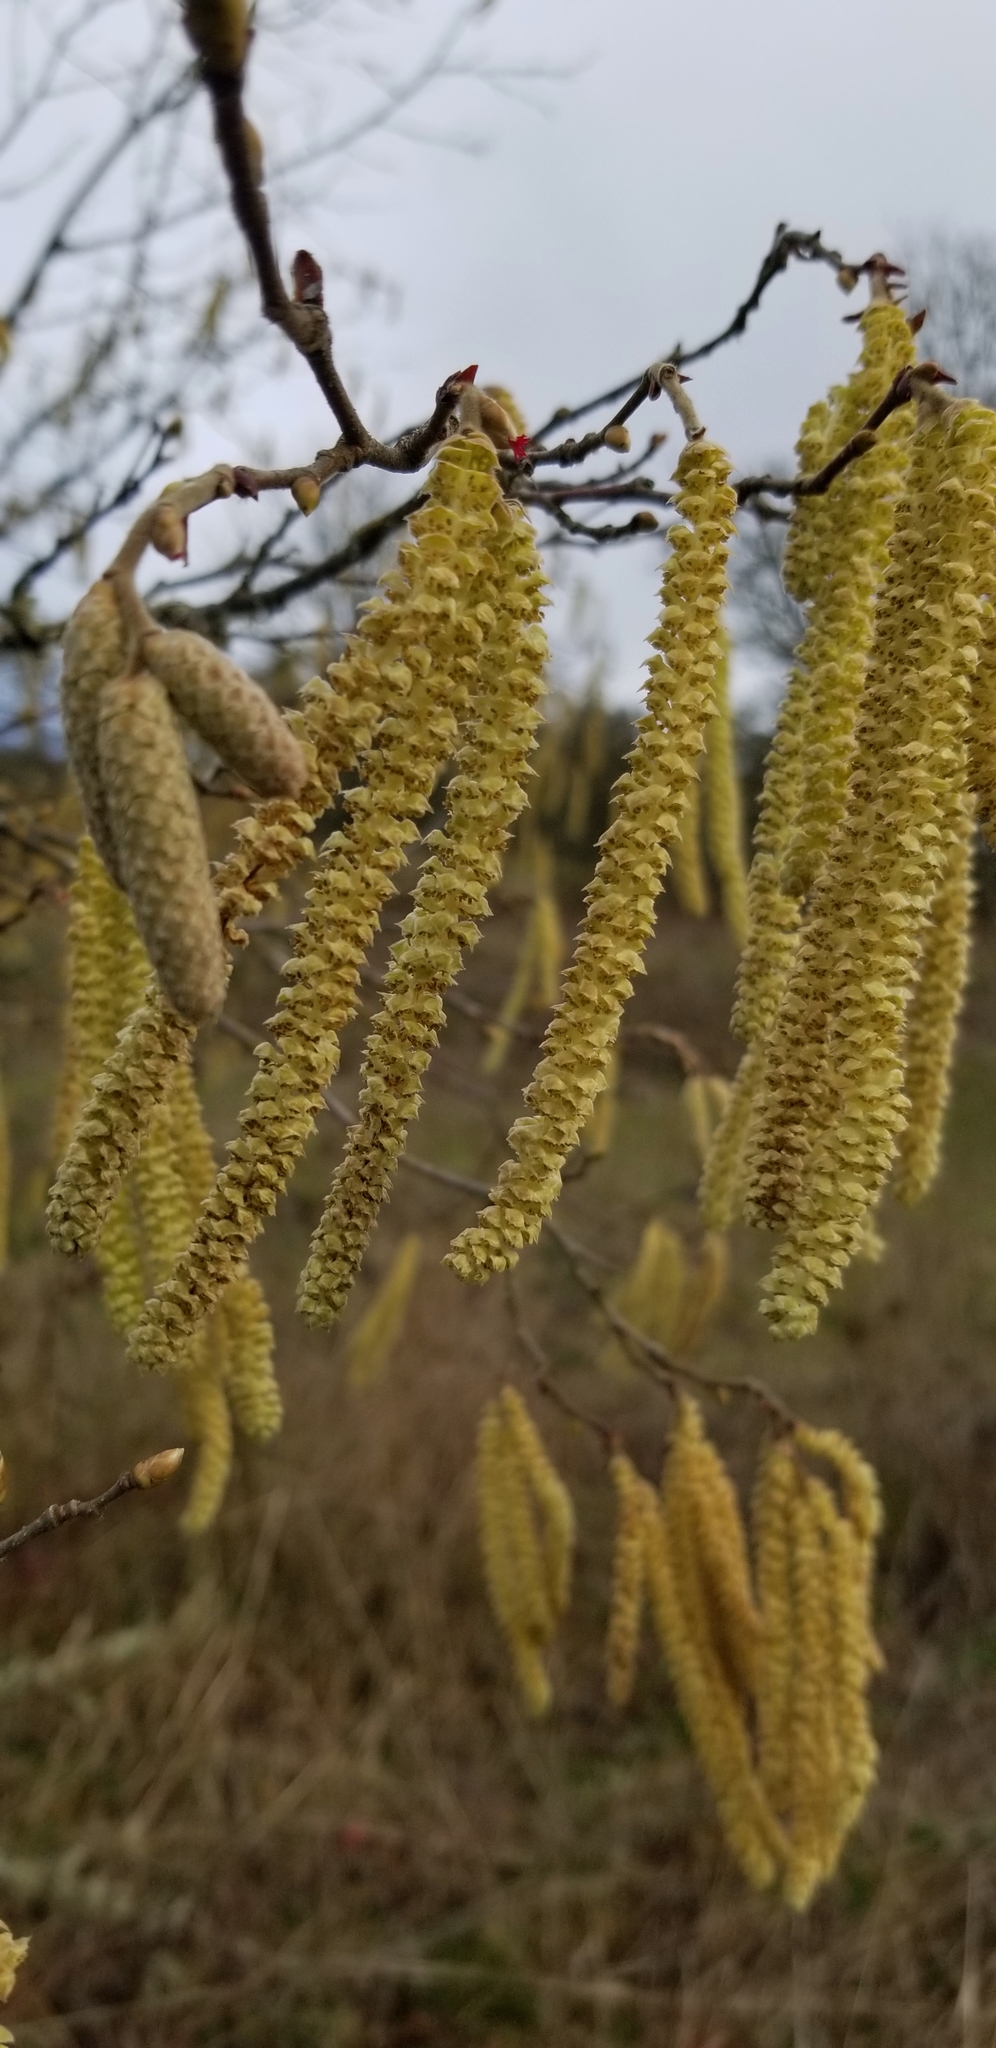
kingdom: Plantae
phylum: Tracheophyta
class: Magnoliopsida
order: Fagales
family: Betulaceae
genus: Corylus
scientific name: Corylus avellana
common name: European hazel
